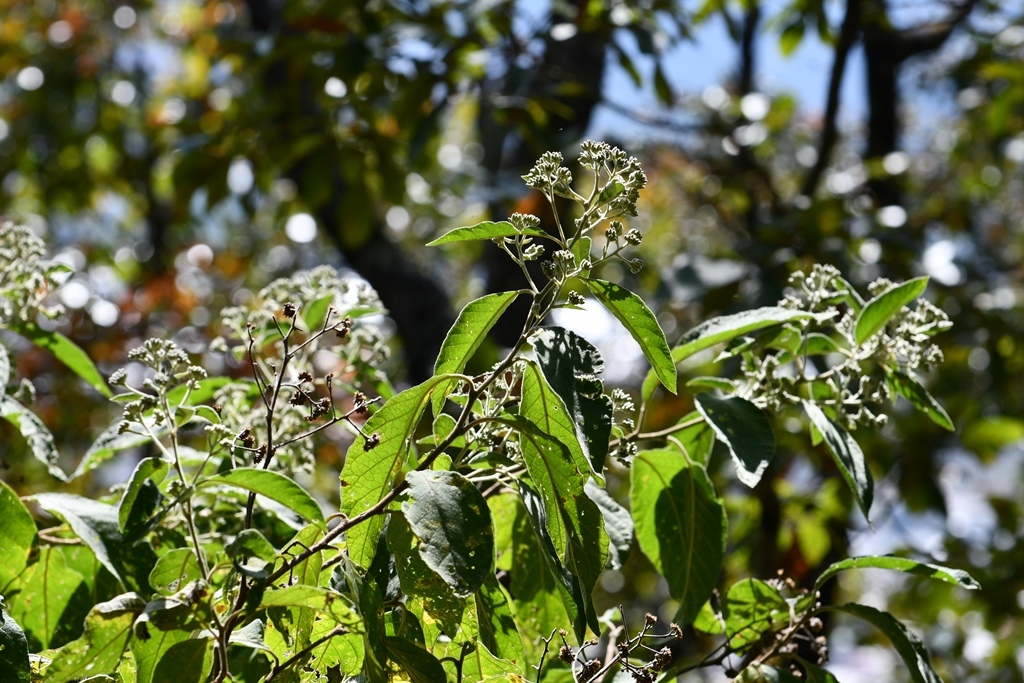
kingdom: Plantae
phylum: Tracheophyta
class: Magnoliopsida
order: Asterales
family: Asteraceae
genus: Eremosis
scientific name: Eremosis leiocarpa
